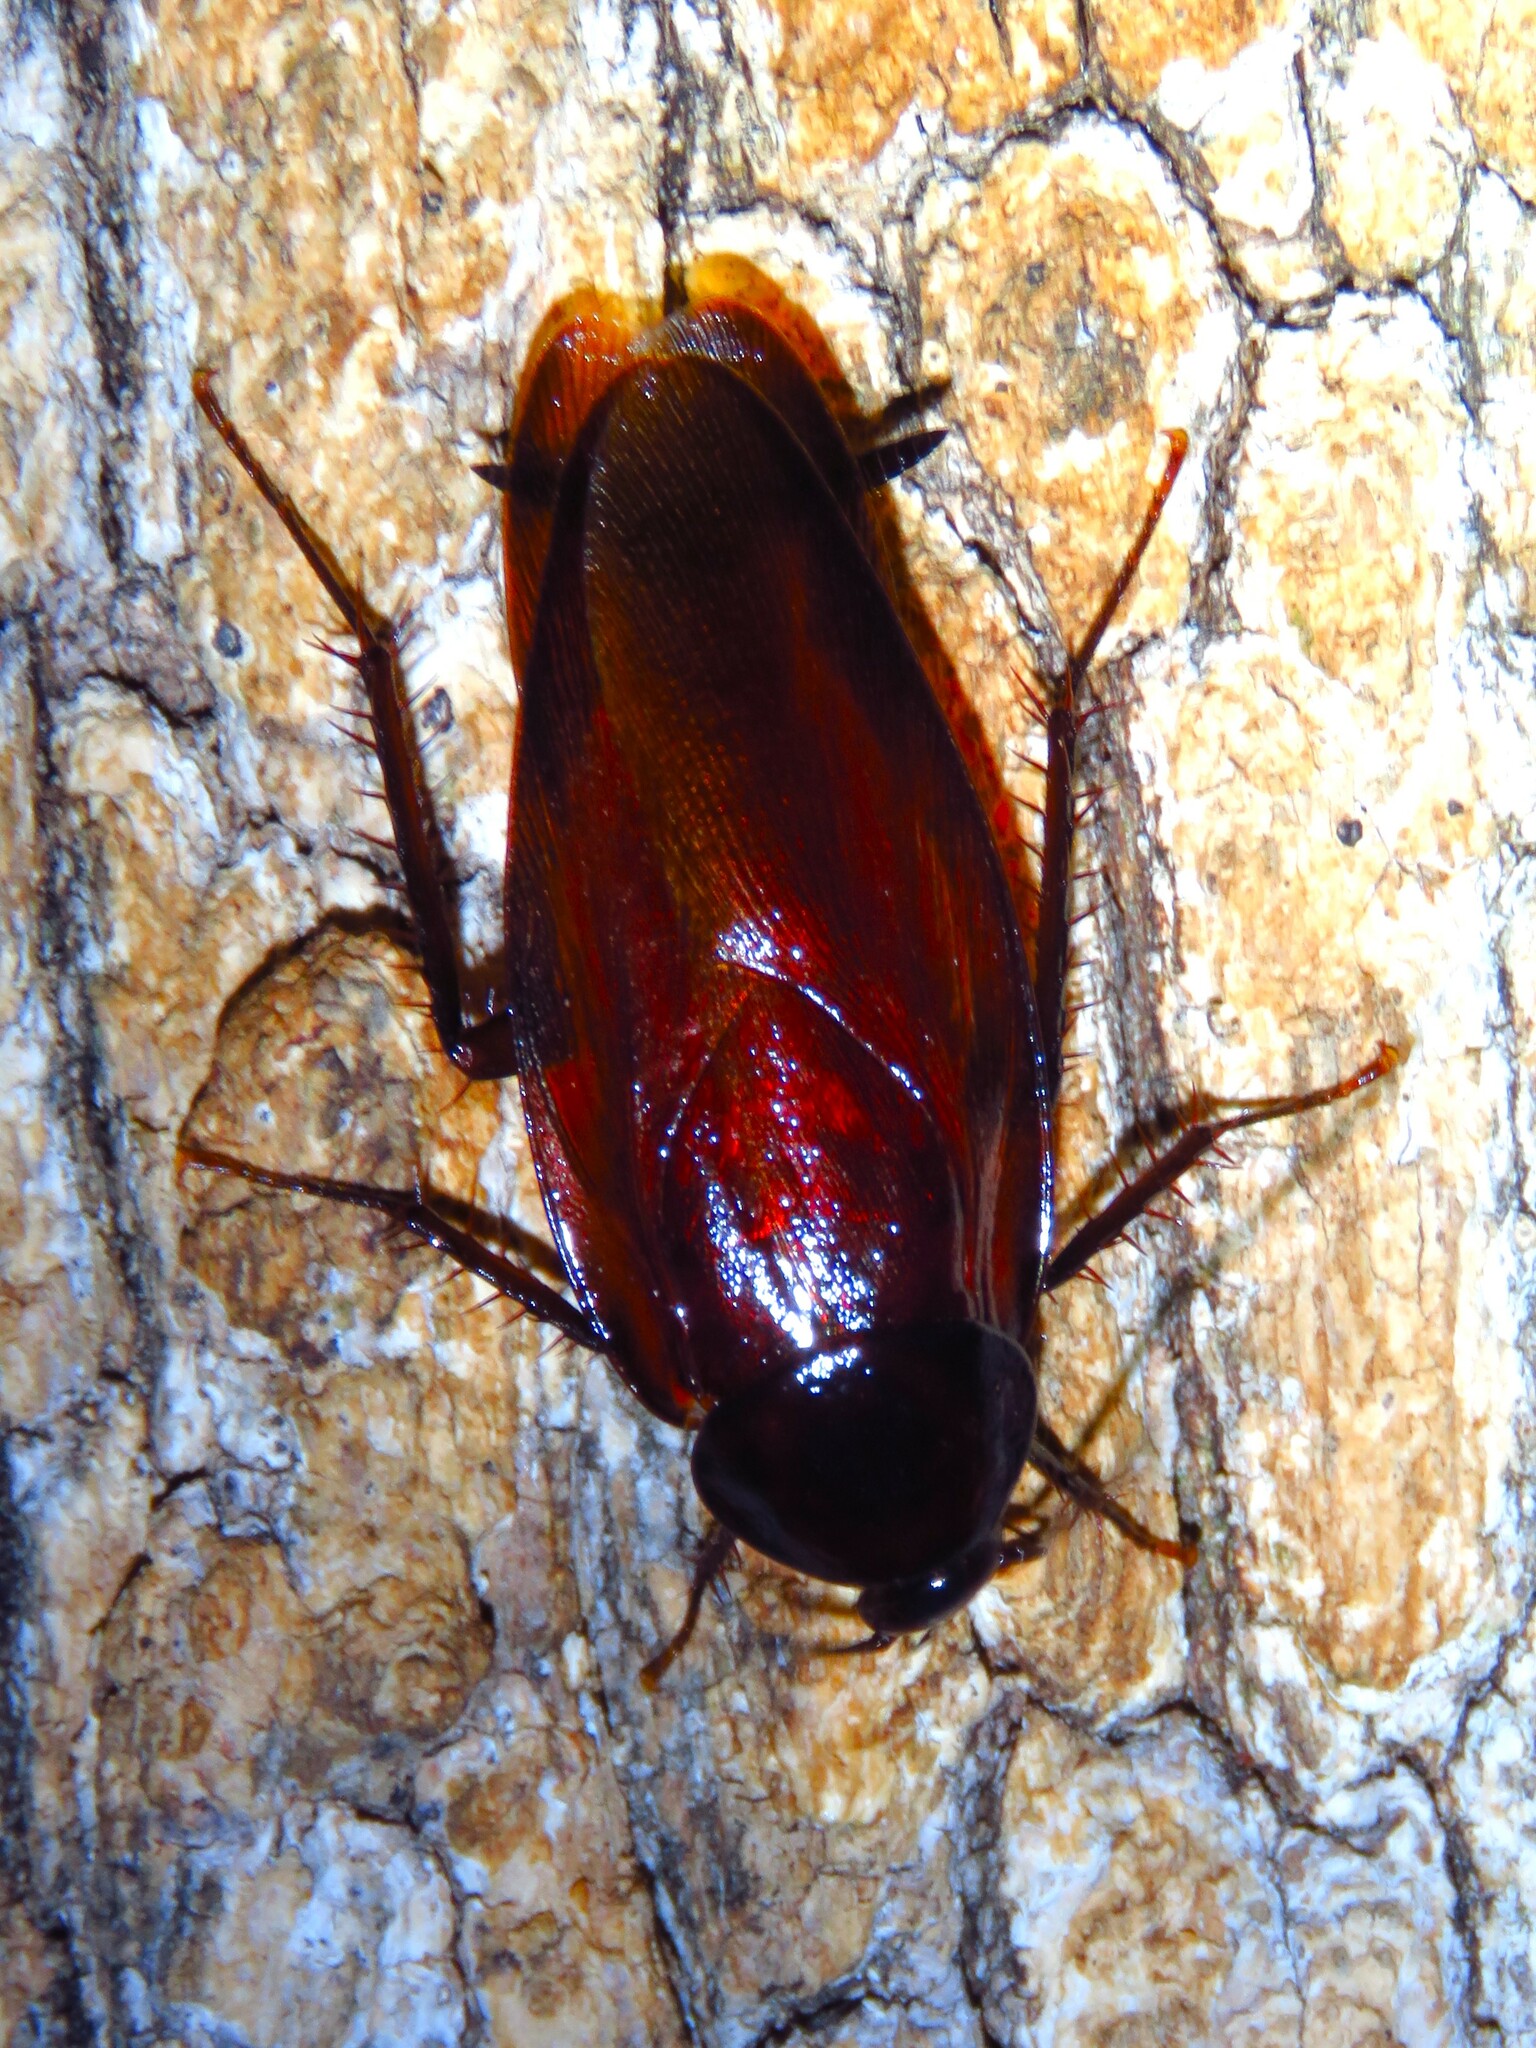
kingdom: Animalia
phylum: Arthropoda
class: Insecta
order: Blattodea
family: Blattidae
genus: Periplaneta
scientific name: Periplaneta fuliginosa
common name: Smokeybrown cockroad
